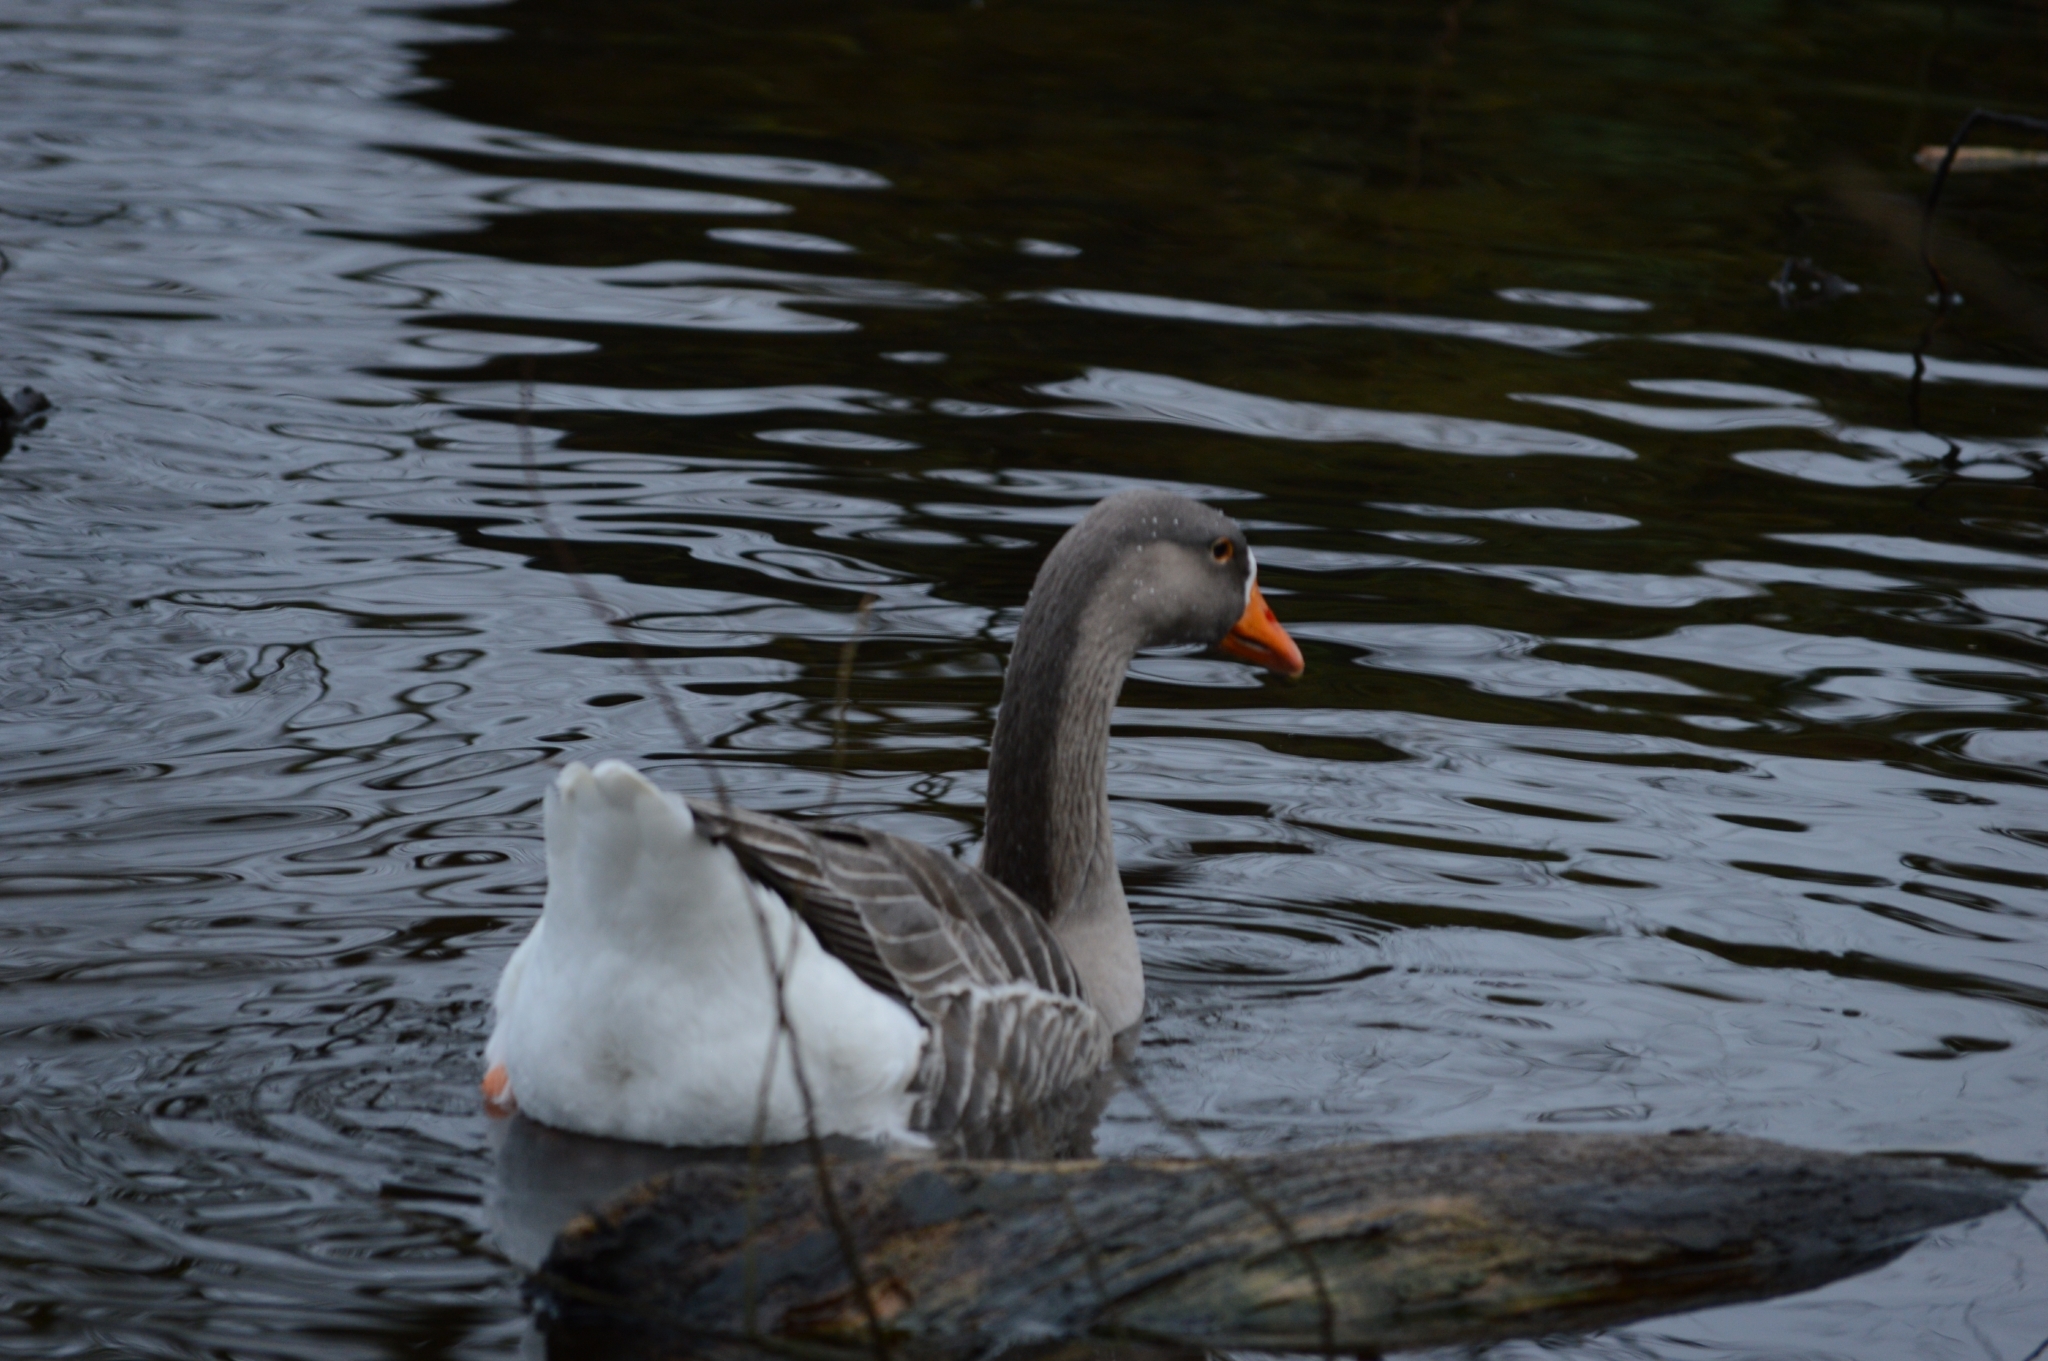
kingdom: Animalia
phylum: Chordata
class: Aves
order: Anseriformes
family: Anatidae
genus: Anser
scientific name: Anser
